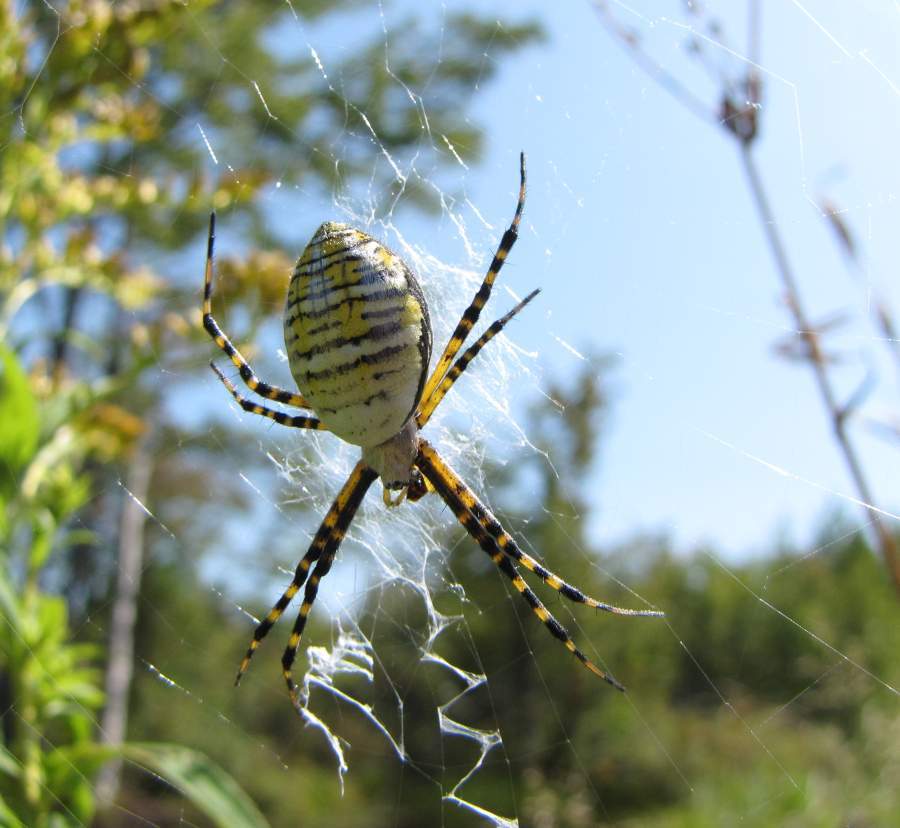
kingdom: Animalia
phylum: Arthropoda
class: Arachnida
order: Araneae
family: Araneidae
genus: Argiope
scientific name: Argiope trifasciata
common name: Banded garden spider
